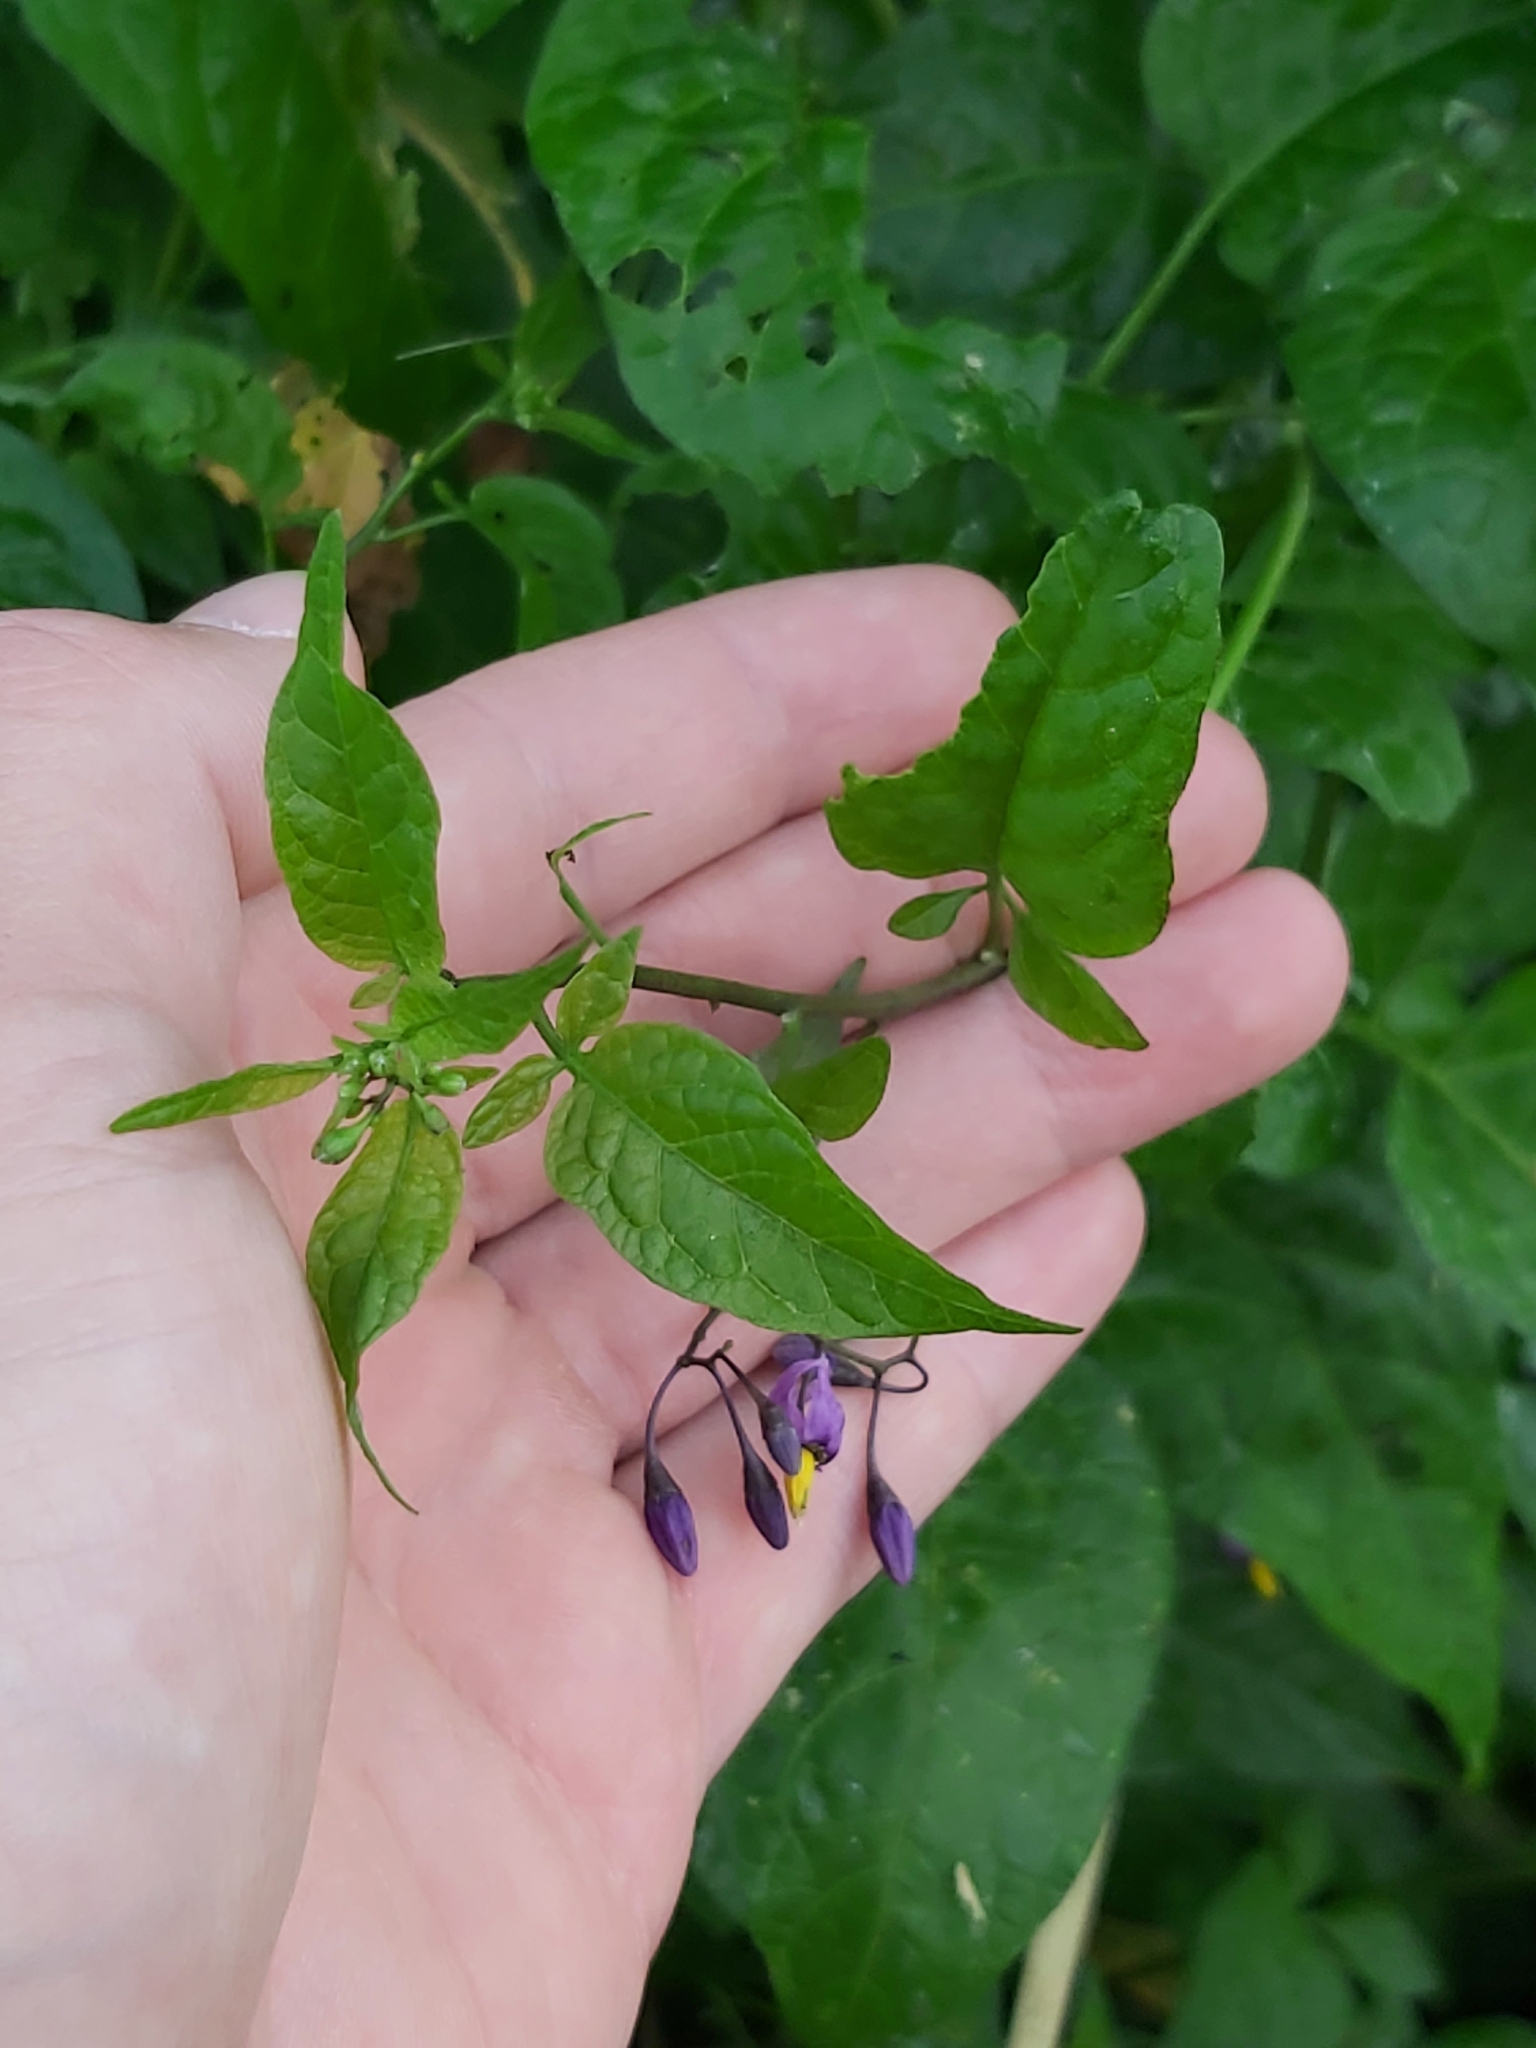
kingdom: Plantae
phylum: Tracheophyta
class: Magnoliopsida
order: Solanales
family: Solanaceae
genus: Solanum
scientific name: Solanum dulcamara
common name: Climbing nightshade
